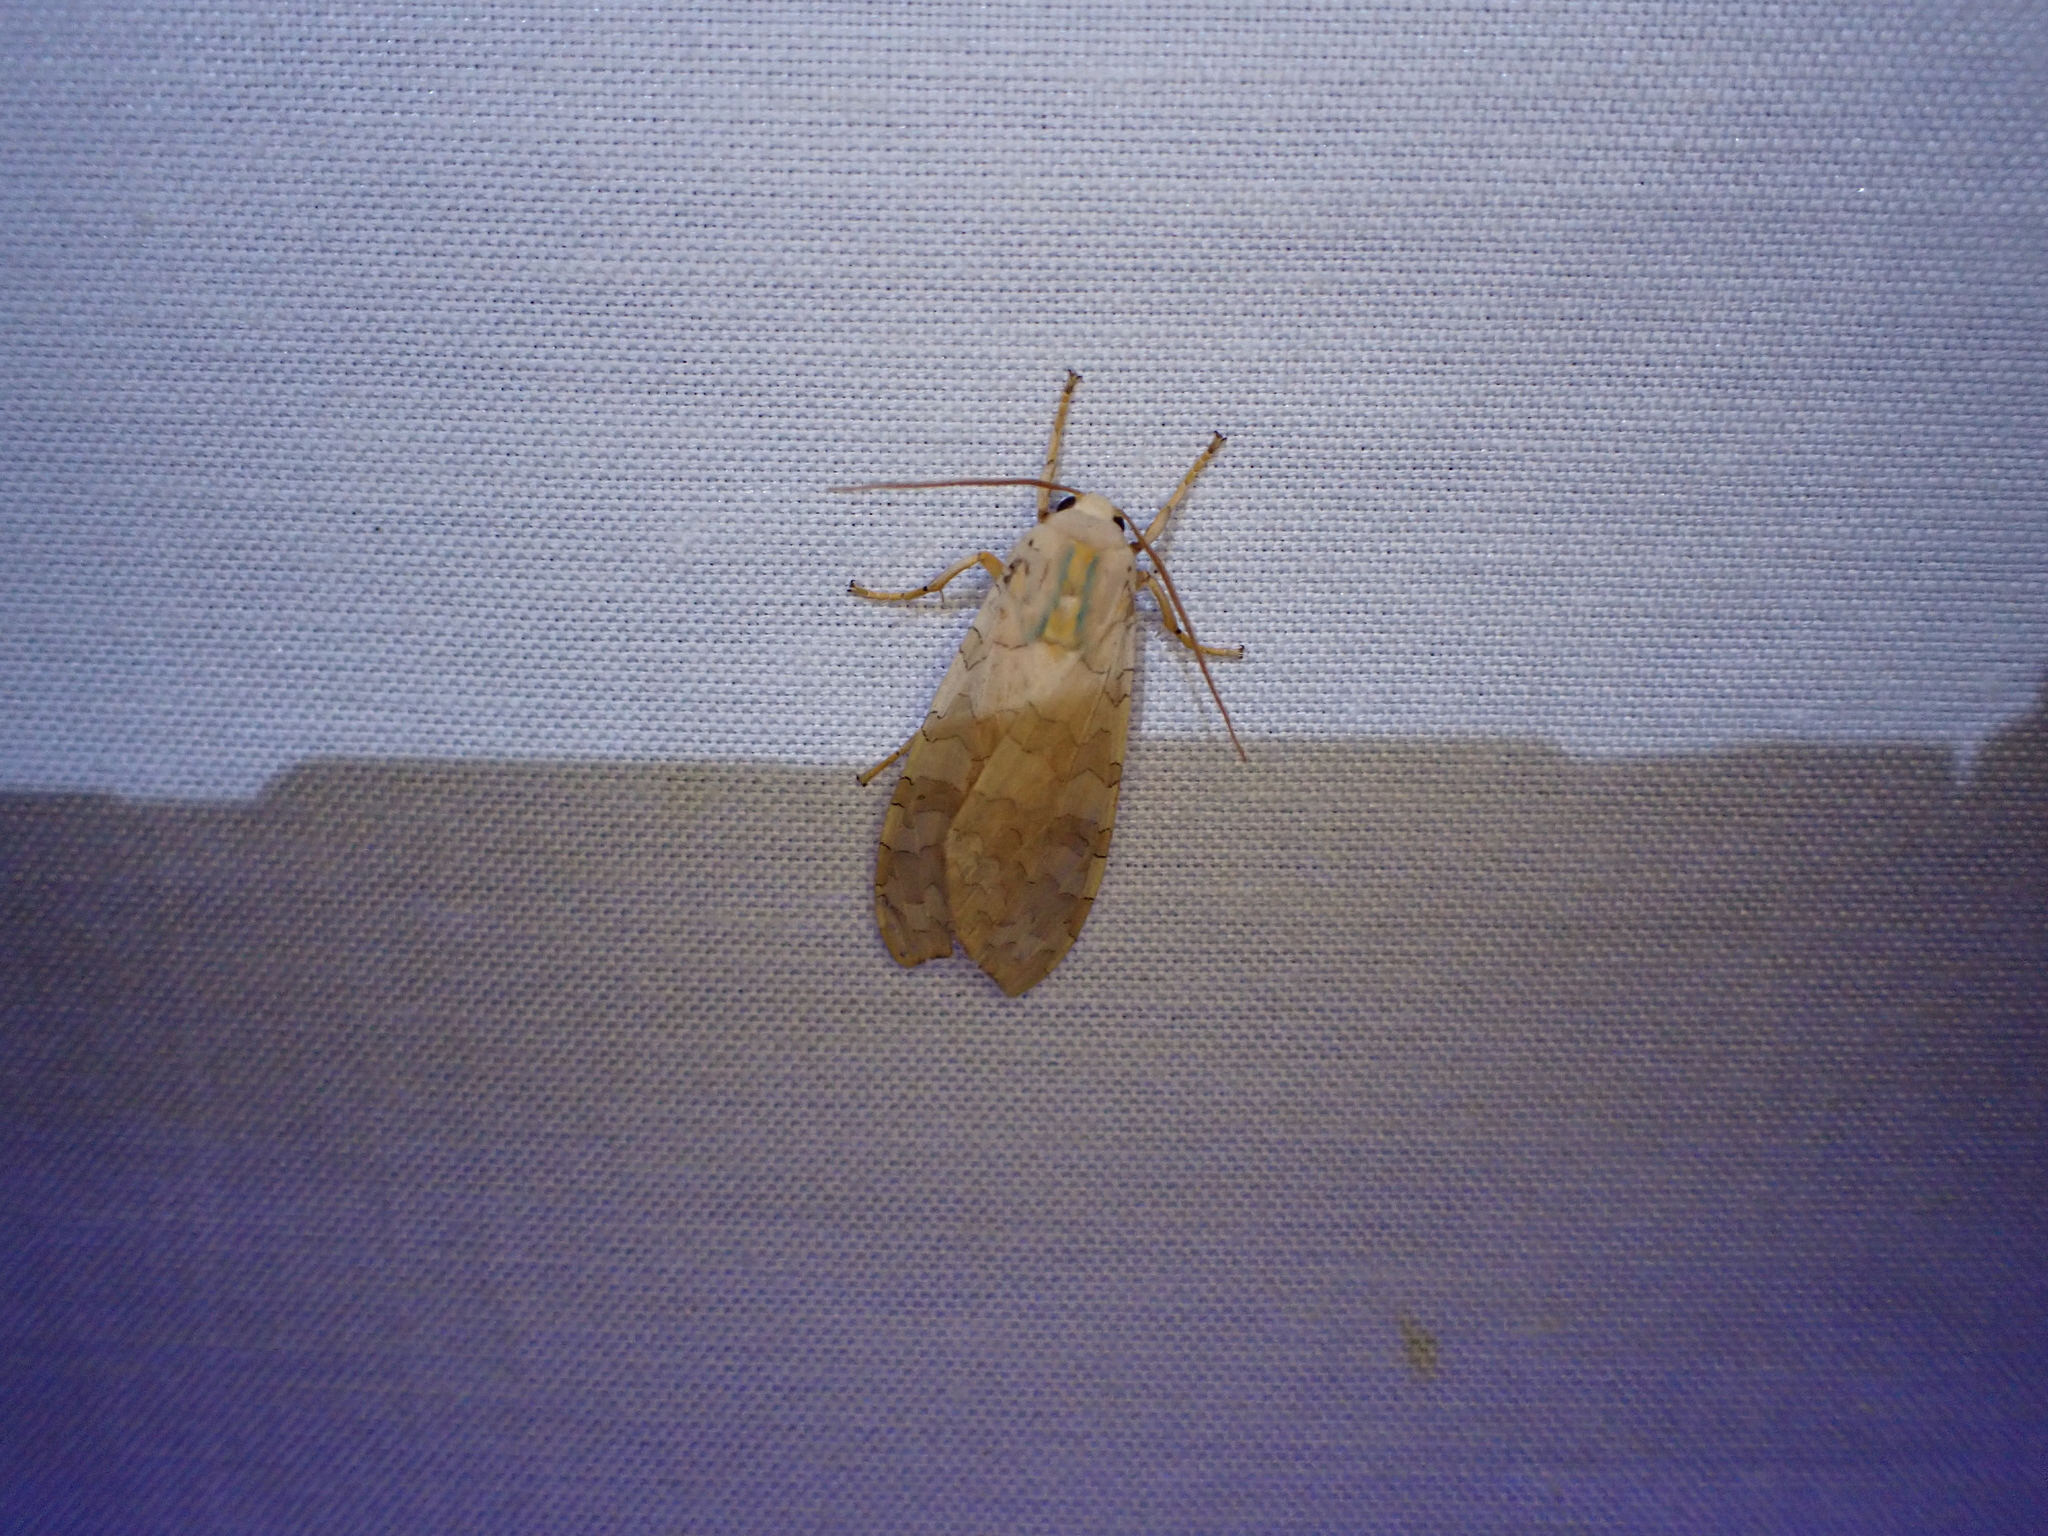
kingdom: Animalia
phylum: Arthropoda
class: Insecta
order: Lepidoptera
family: Erebidae
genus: Halysidota
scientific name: Halysidota
